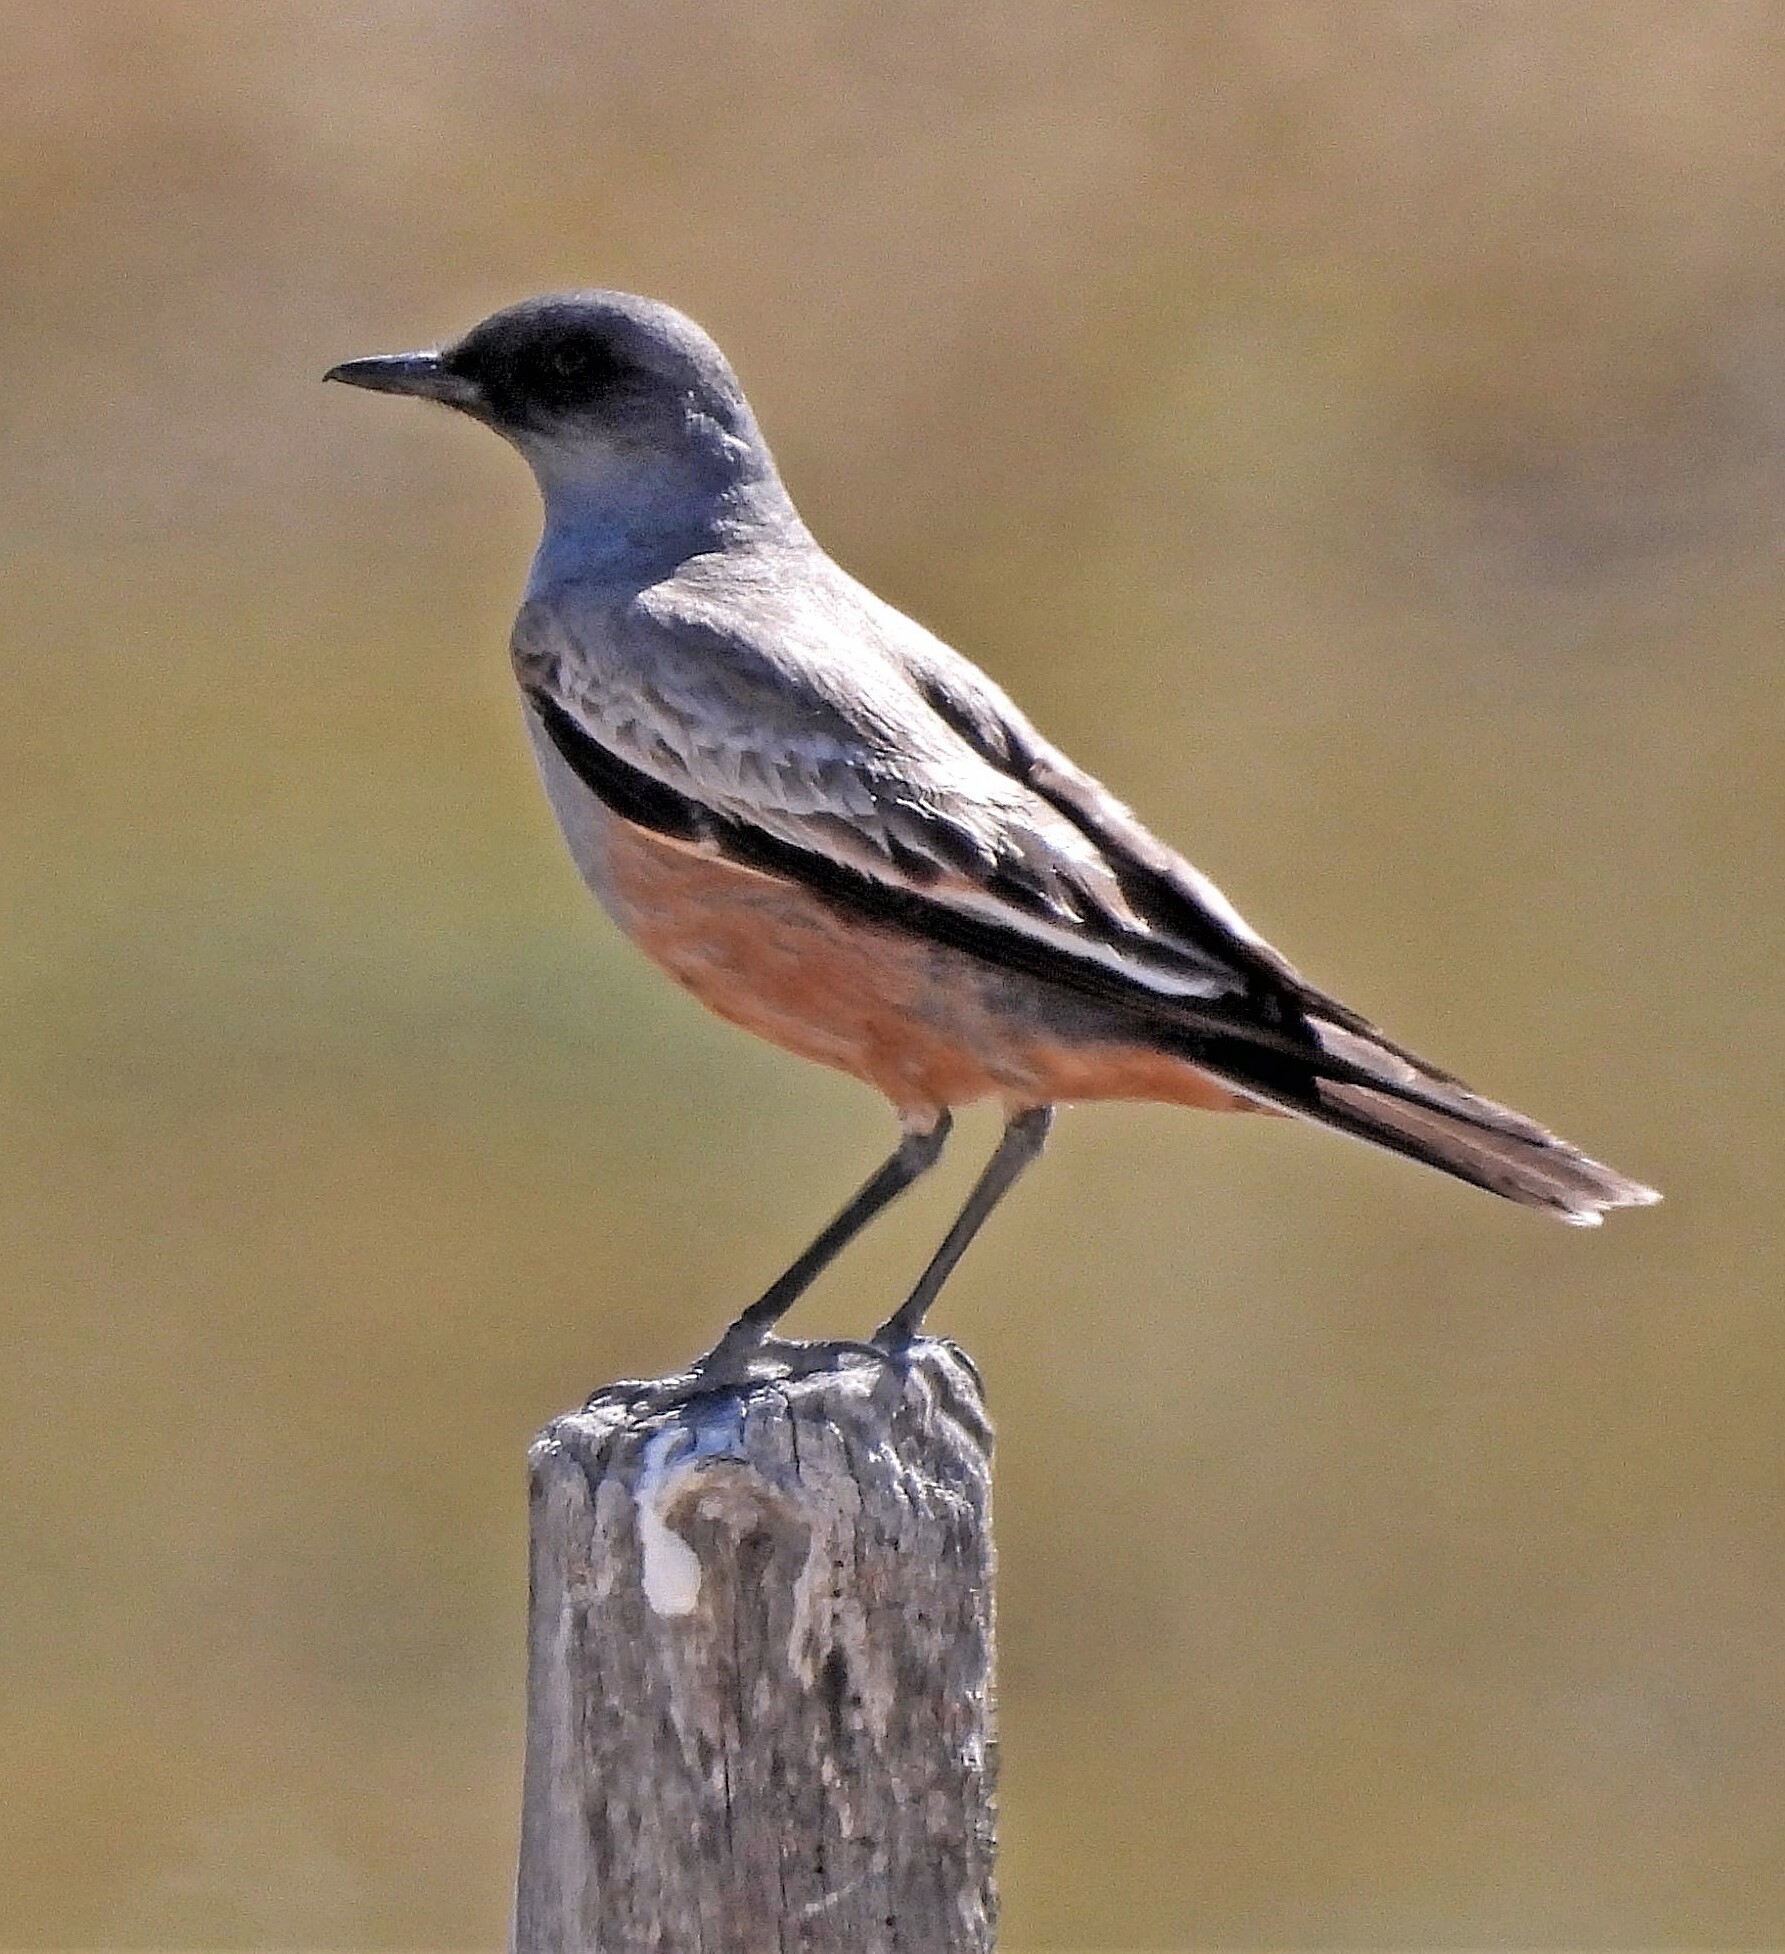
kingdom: Animalia
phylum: Chordata
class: Aves
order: Passeriformes
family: Tyrannidae
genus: Neoxolmis
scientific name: Neoxolmis rufiventris
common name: Chocolate-vented tyrant
